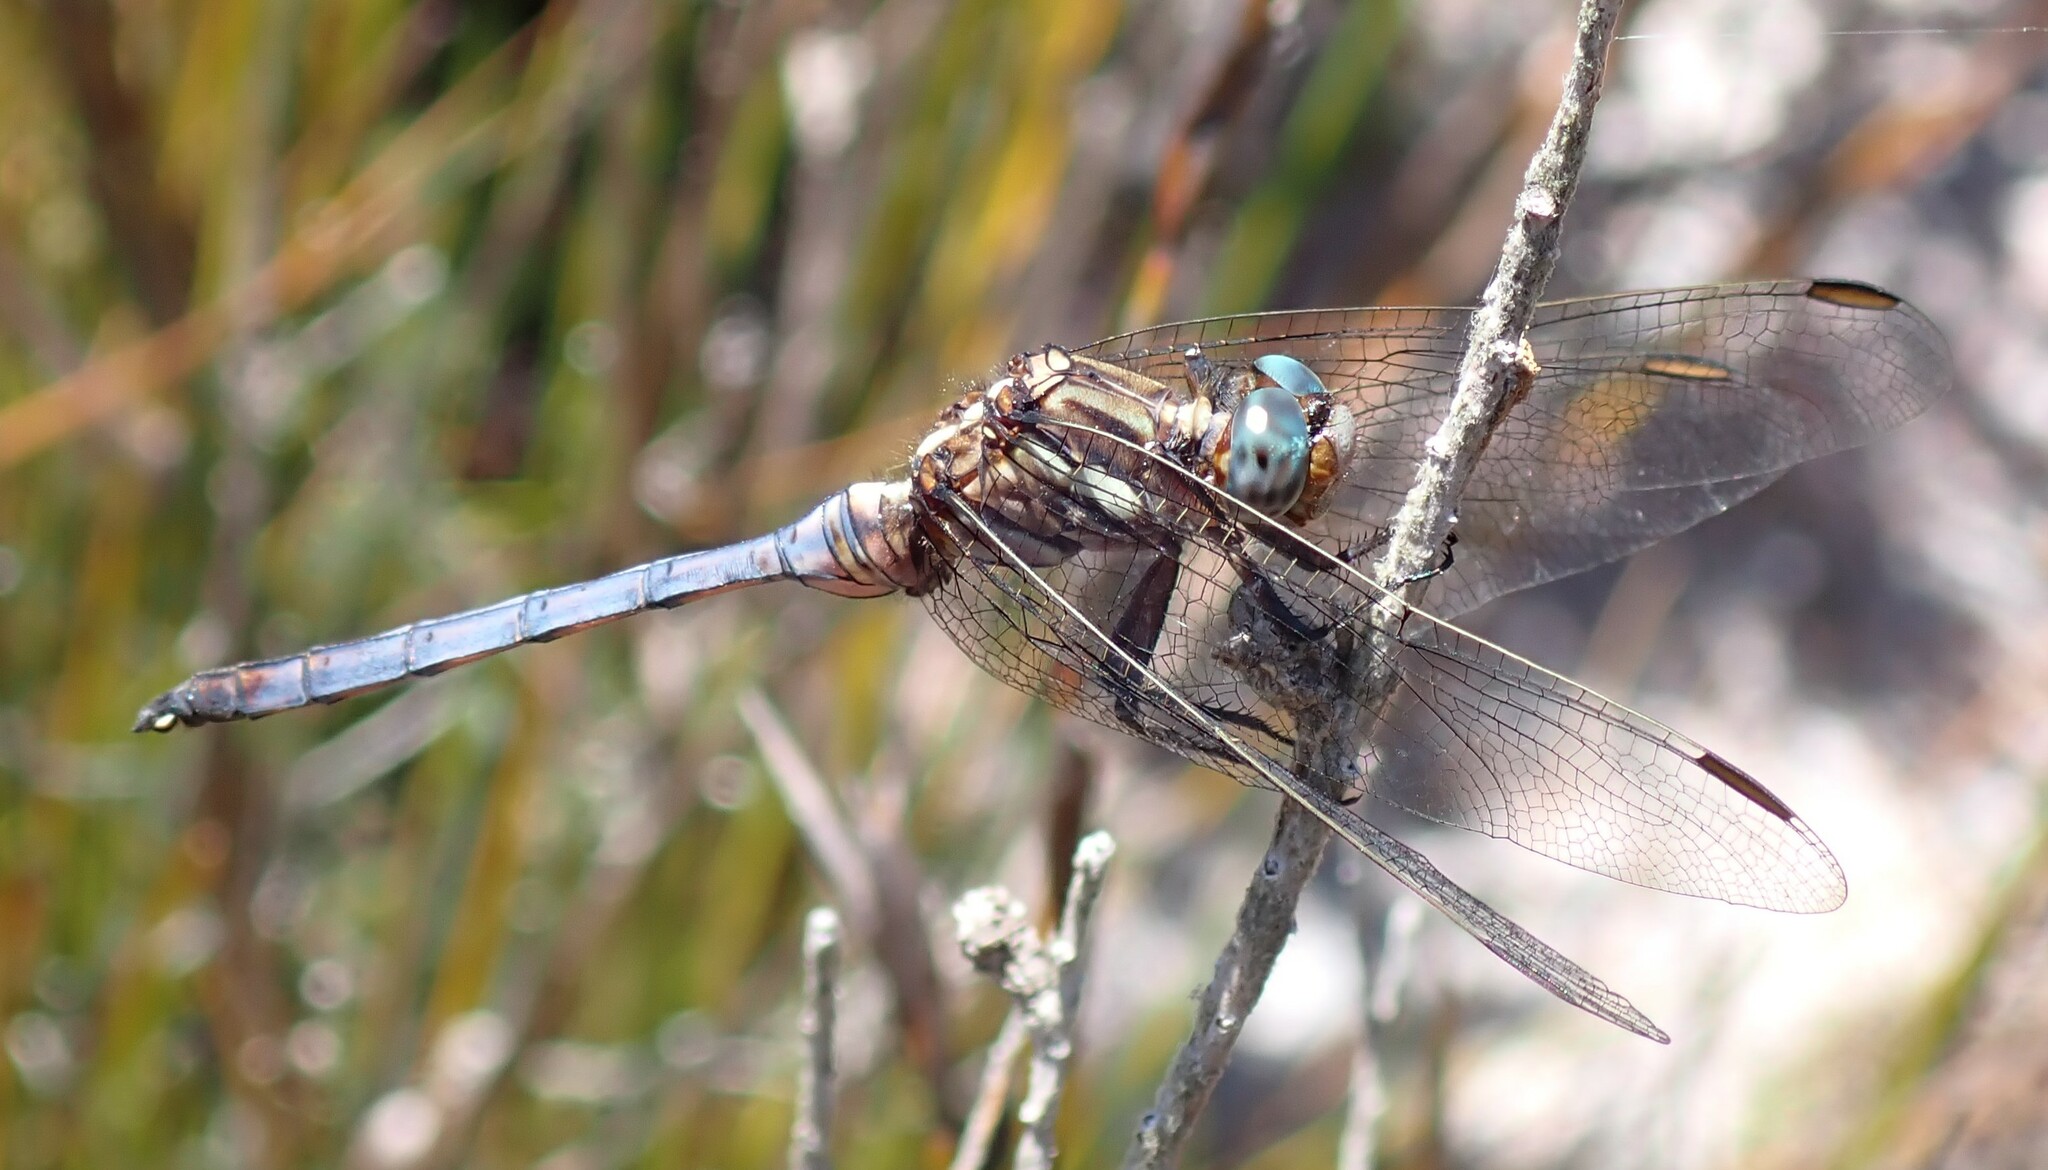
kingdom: Animalia
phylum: Arthropoda
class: Insecta
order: Odonata
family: Libellulidae
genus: Orthetrum
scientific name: Orthetrum julia
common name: Julia skimmer
